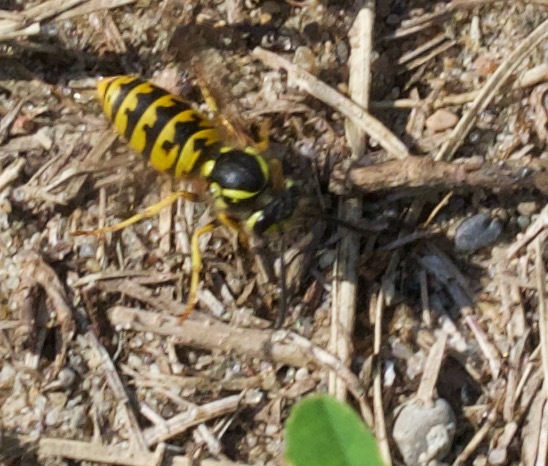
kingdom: Animalia
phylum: Arthropoda
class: Insecta
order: Hymenoptera
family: Vespidae
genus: Vespula
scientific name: Vespula germanica
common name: German wasp
